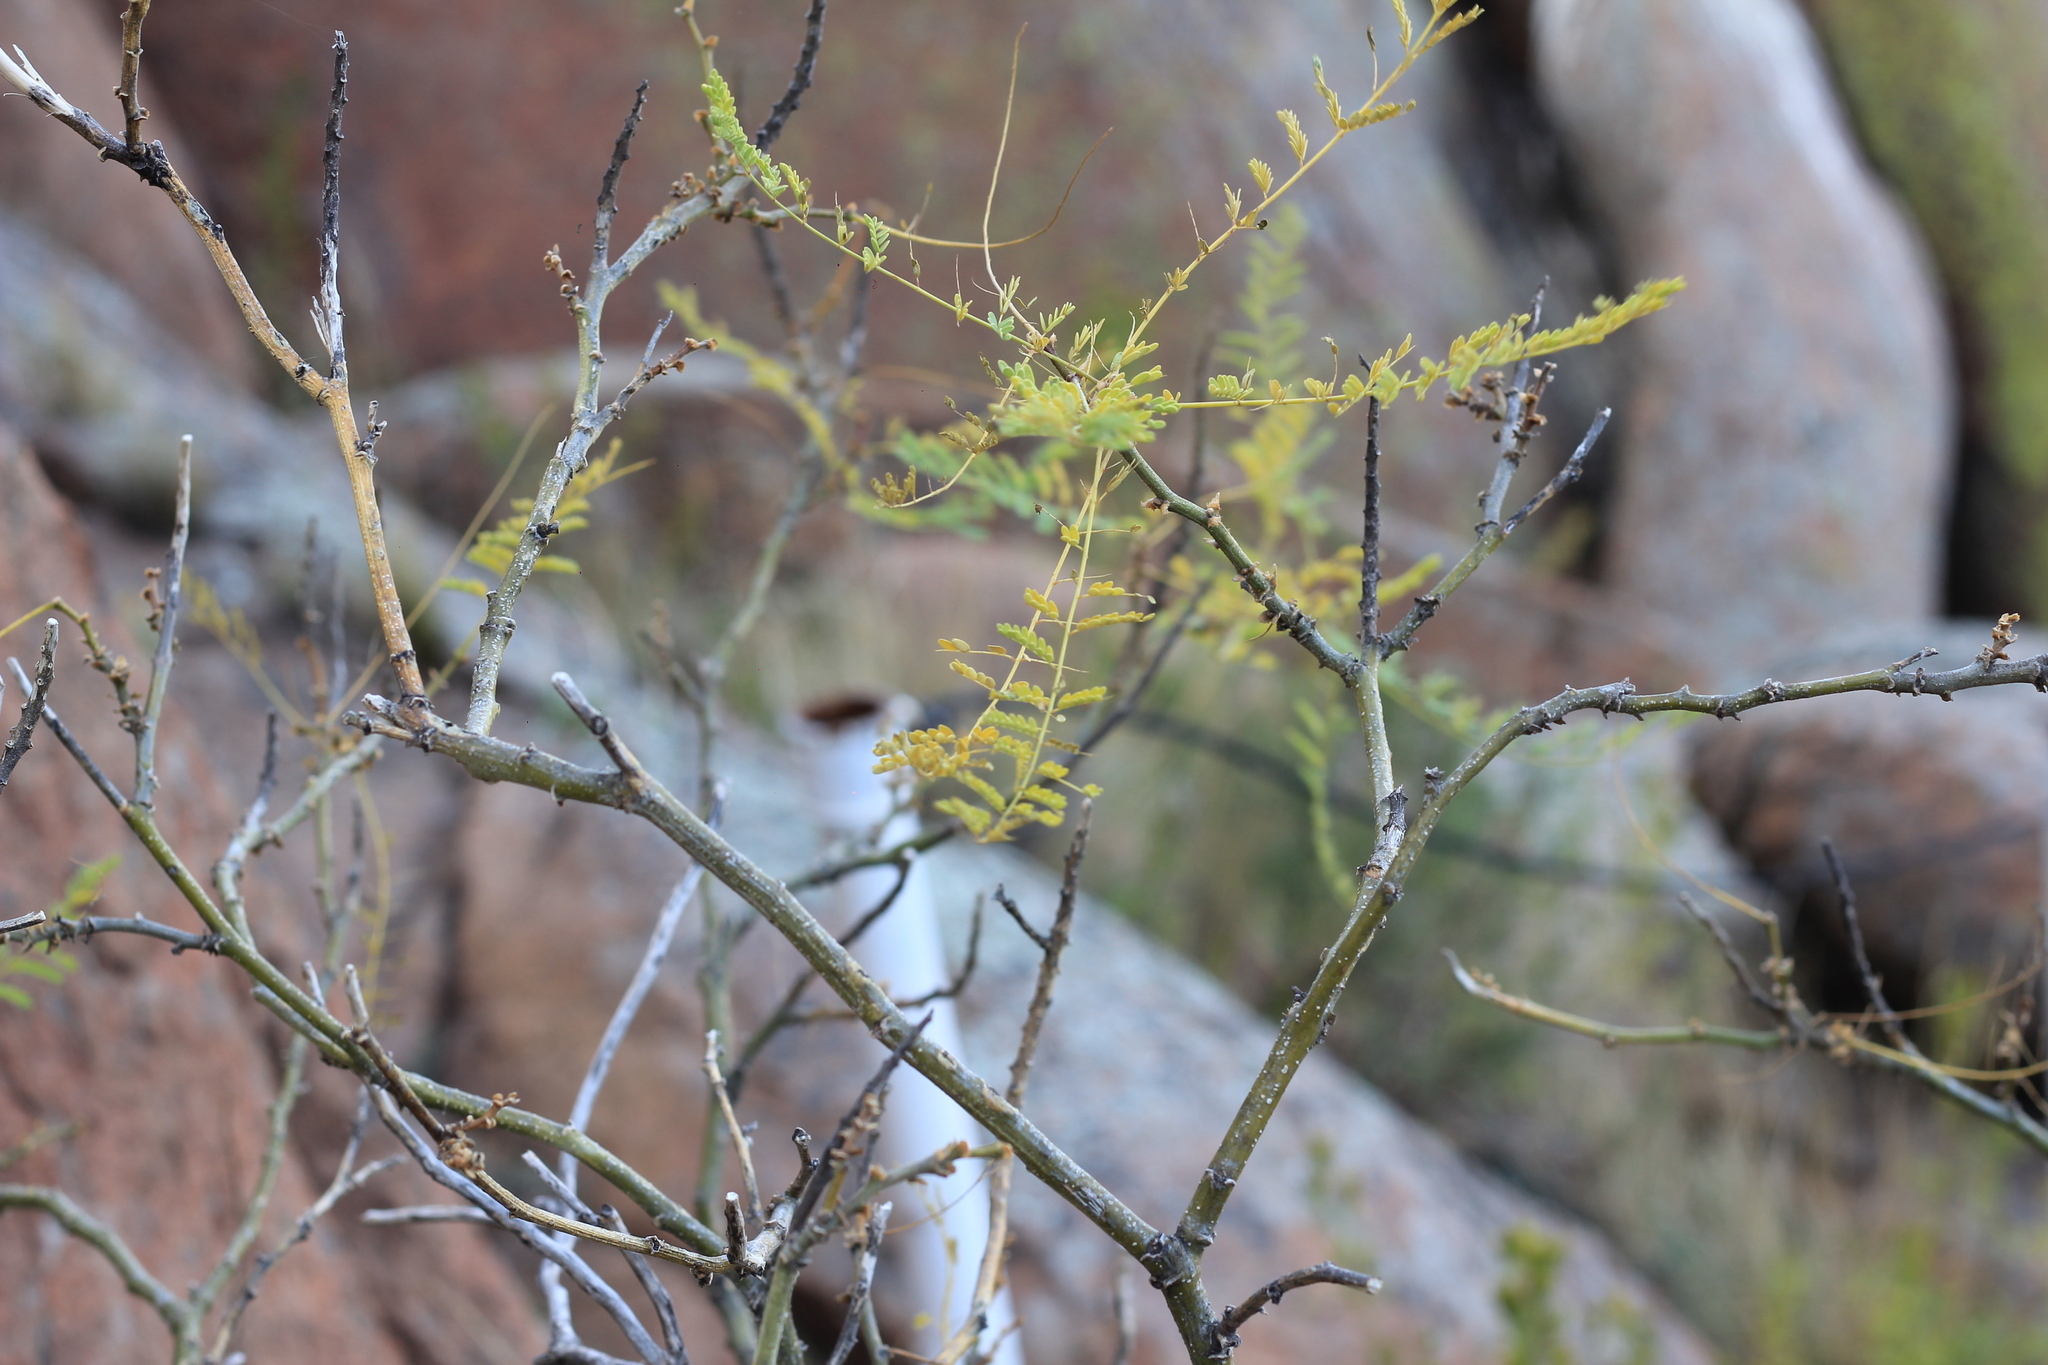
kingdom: Plantae
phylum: Tracheophyta
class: Magnoliopsida
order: Fabales
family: Fabaceae
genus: Erythrostemon
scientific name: Erythrostemon gilliesii
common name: Bird-of-paradise shrub
